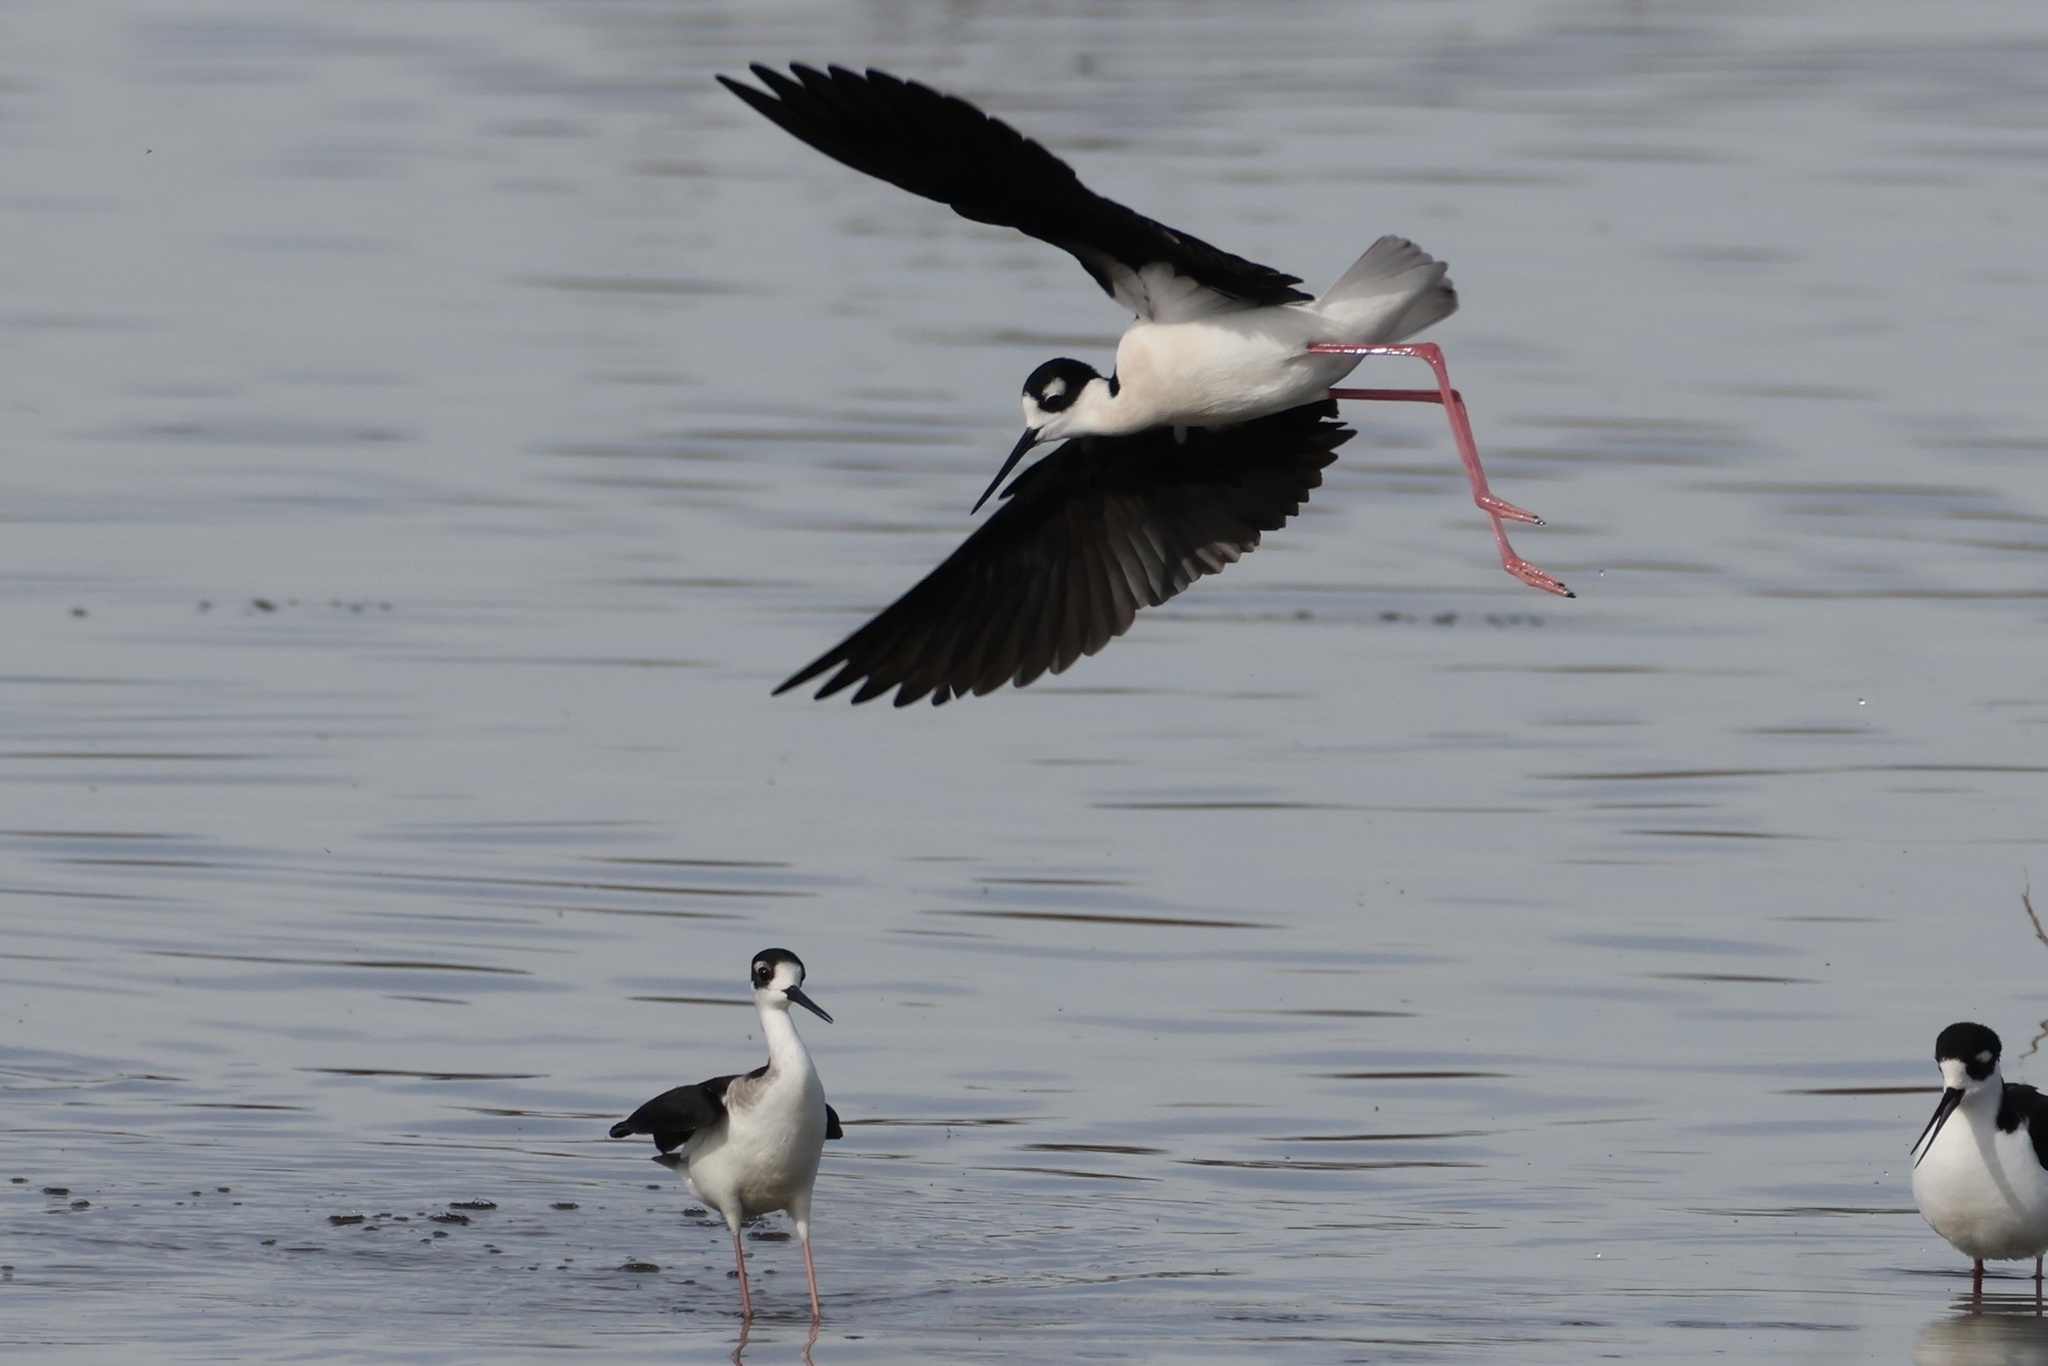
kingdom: Animalia
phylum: Chordata
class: Aves
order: Charadriiformes
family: Recurvirostridae
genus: Himantopus
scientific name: Himantopus mexicanus
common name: Black-necked stilt
